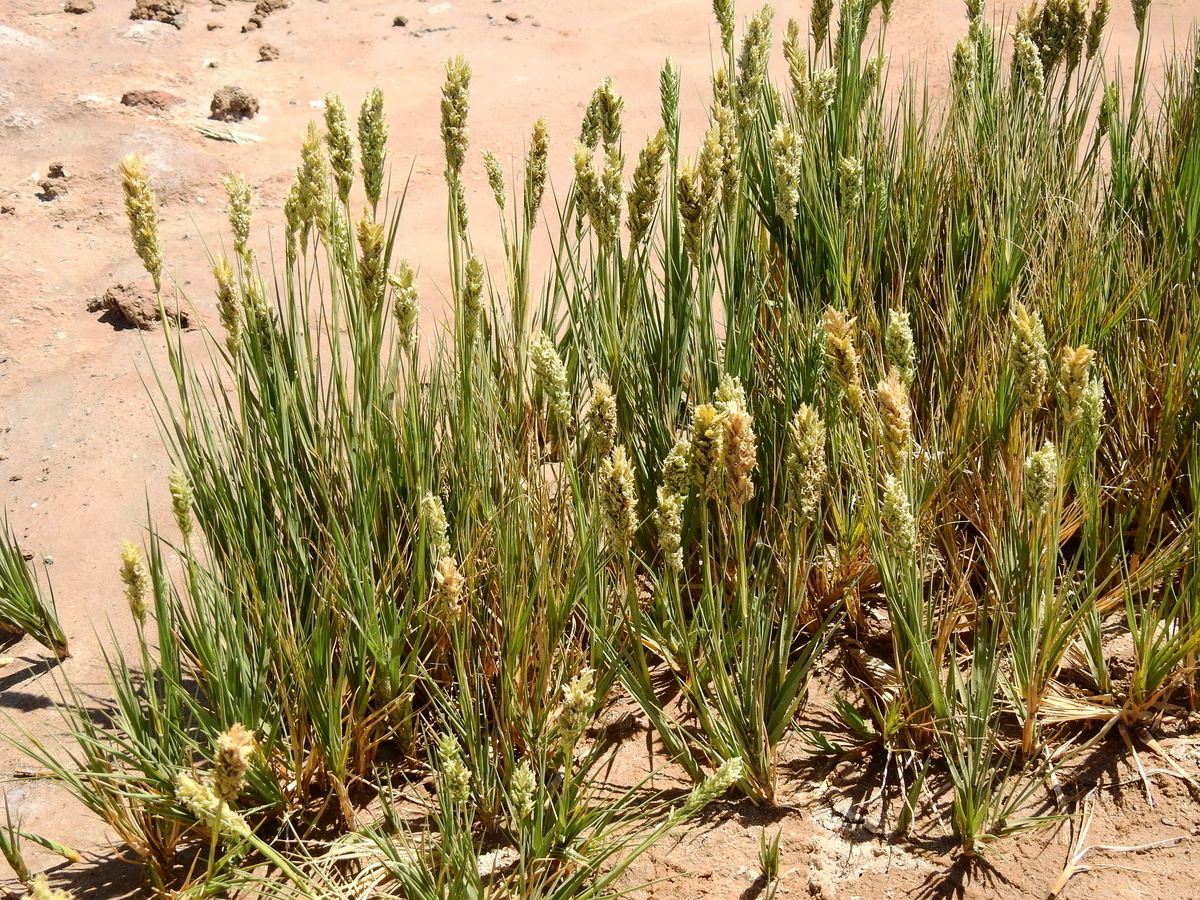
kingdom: Plantae
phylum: Tracheophyta
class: Liliopsida
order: Poales
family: Poaceae
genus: Distichlis
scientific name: Distichlis spicata
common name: Saltgrass
